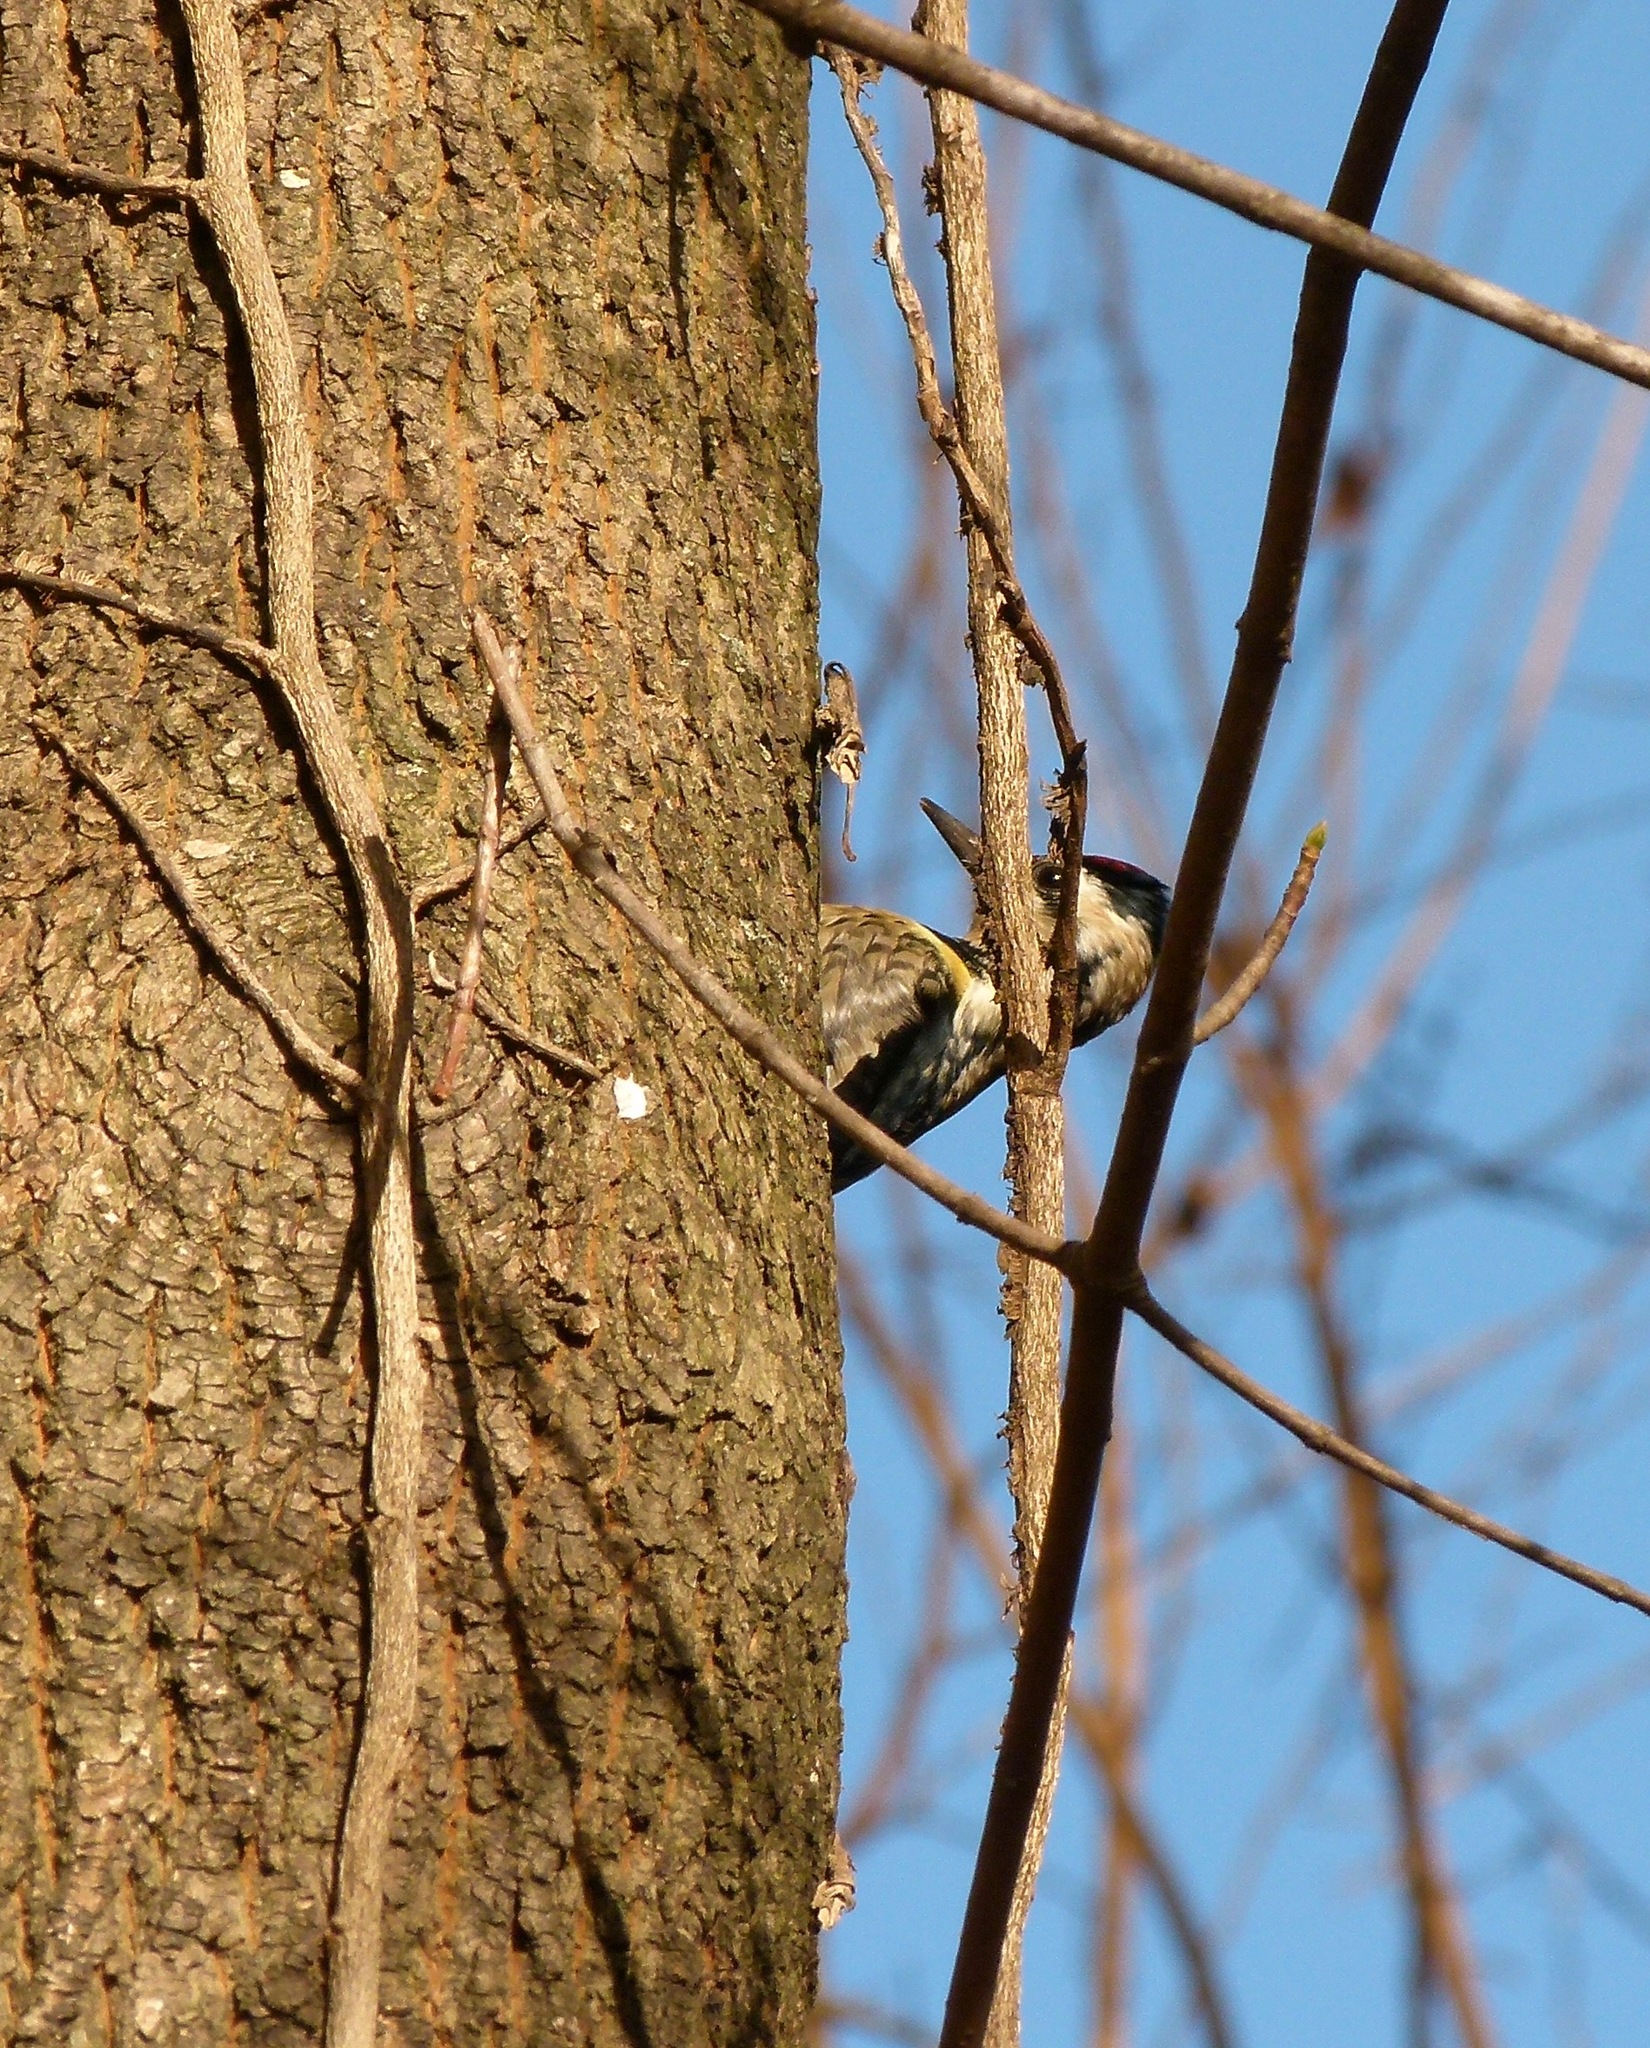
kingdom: Animalia
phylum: Chordata
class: Aves
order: Piciformes
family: Picidae
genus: Sphyrapicus
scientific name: Sphyrapicus varius
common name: Yellow-bellied sapsucker
